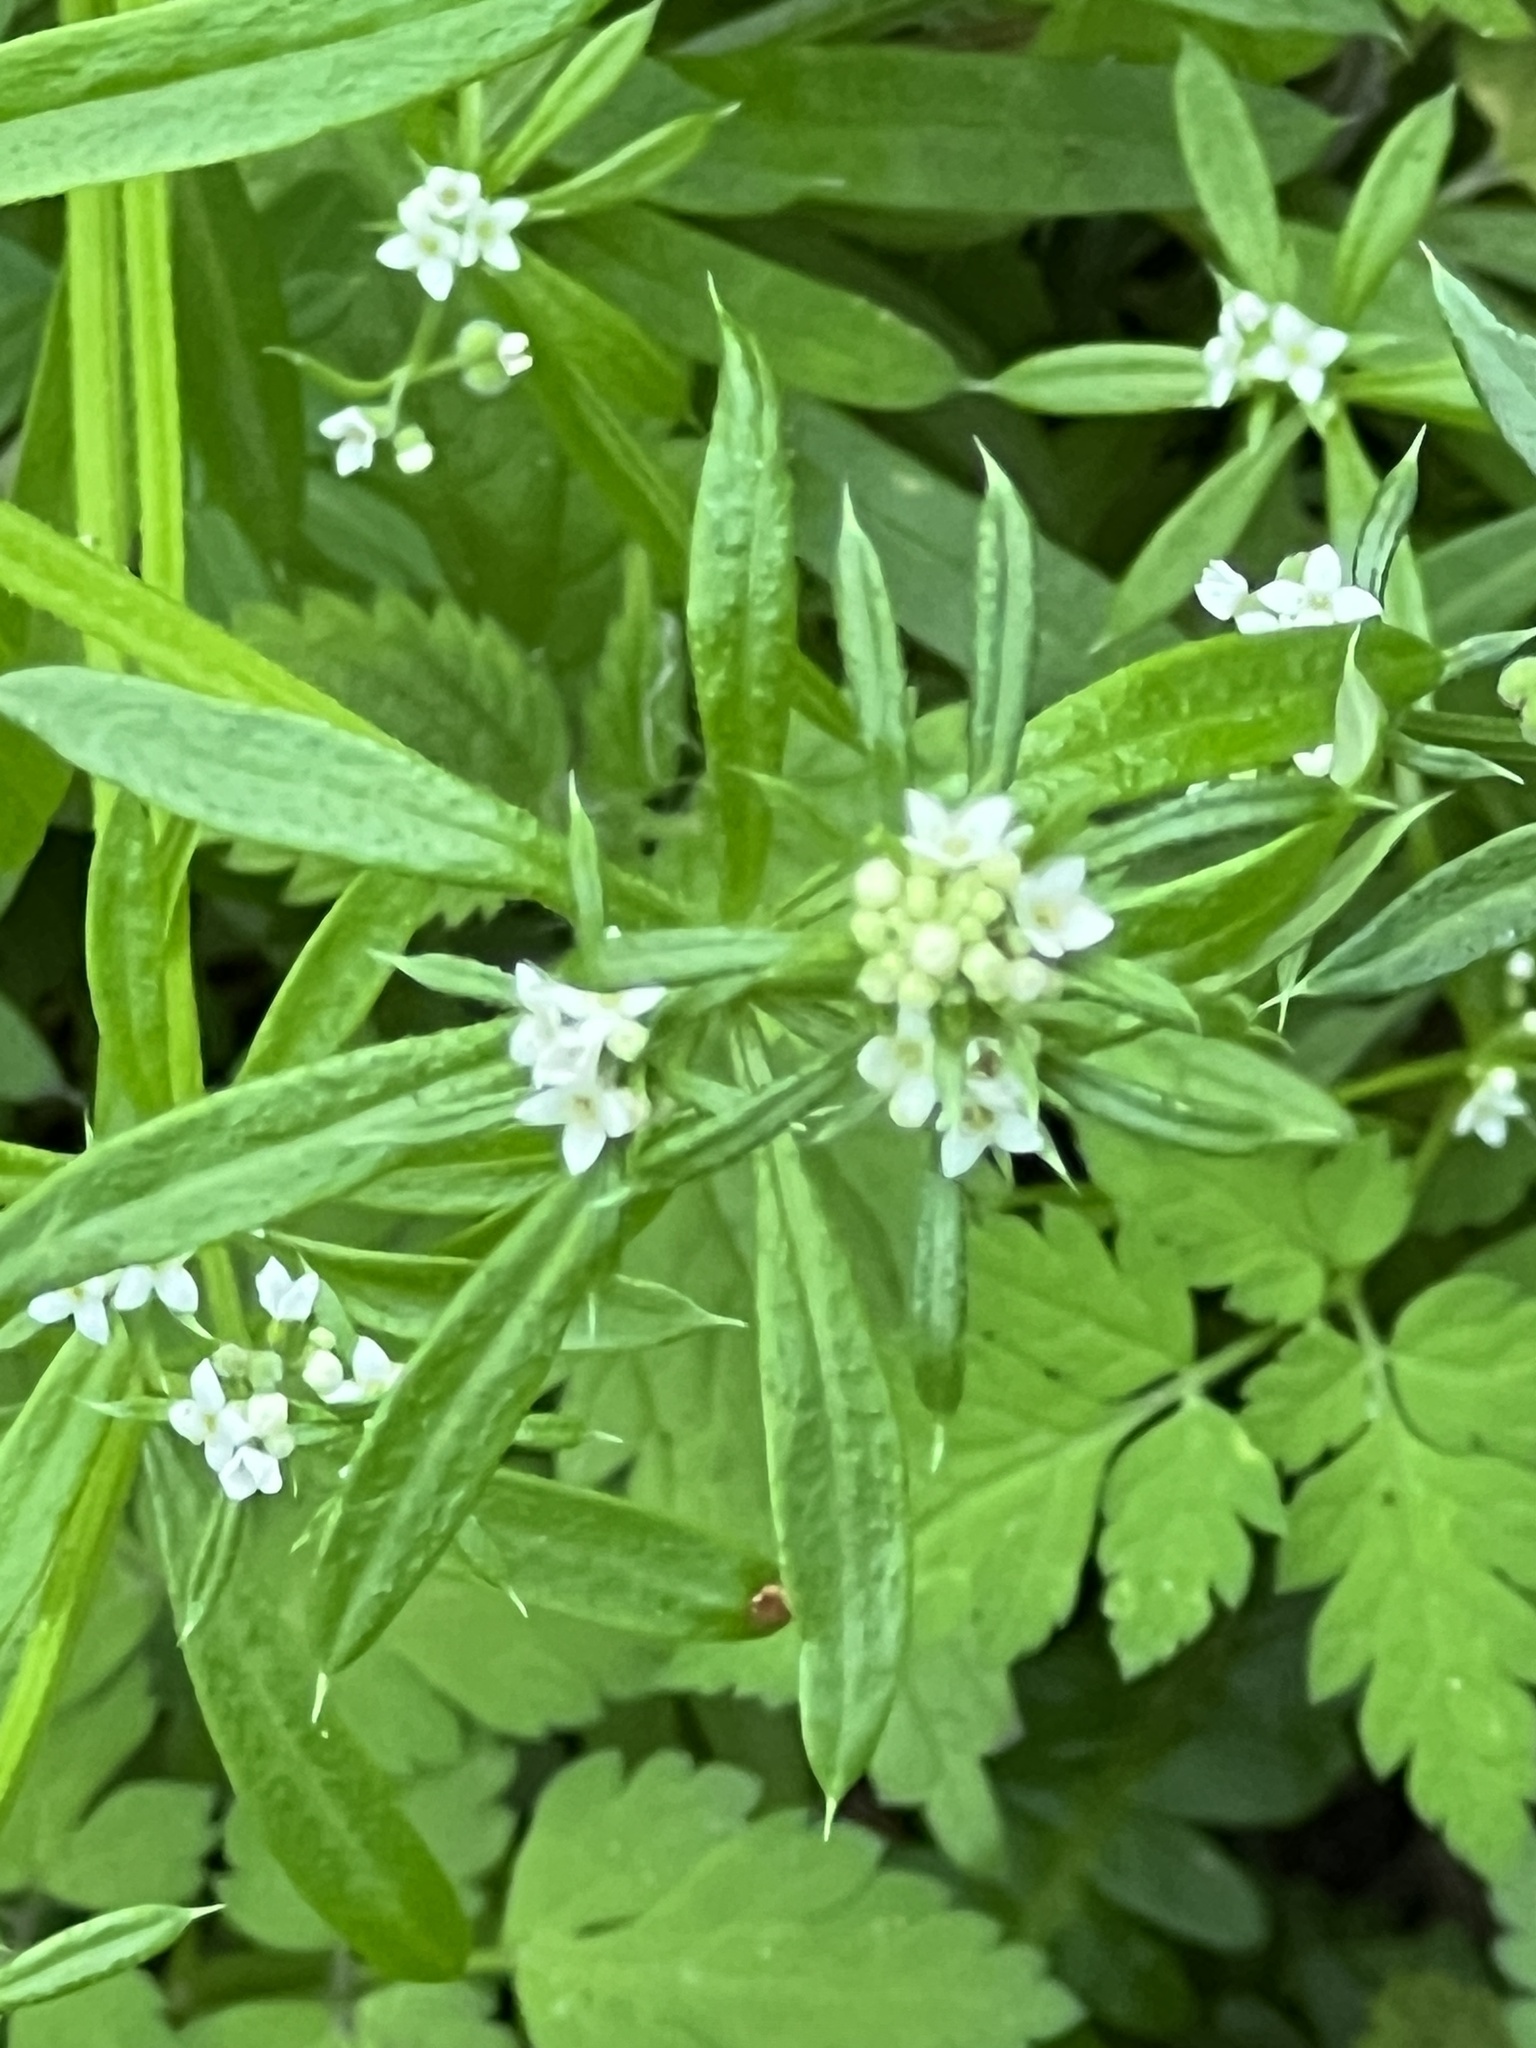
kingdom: Plantae
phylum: Tracheophyta
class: Magnoliopsida
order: Gentianales
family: Rubiaceae
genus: Galium
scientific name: Galium aparine
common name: Cleavers
